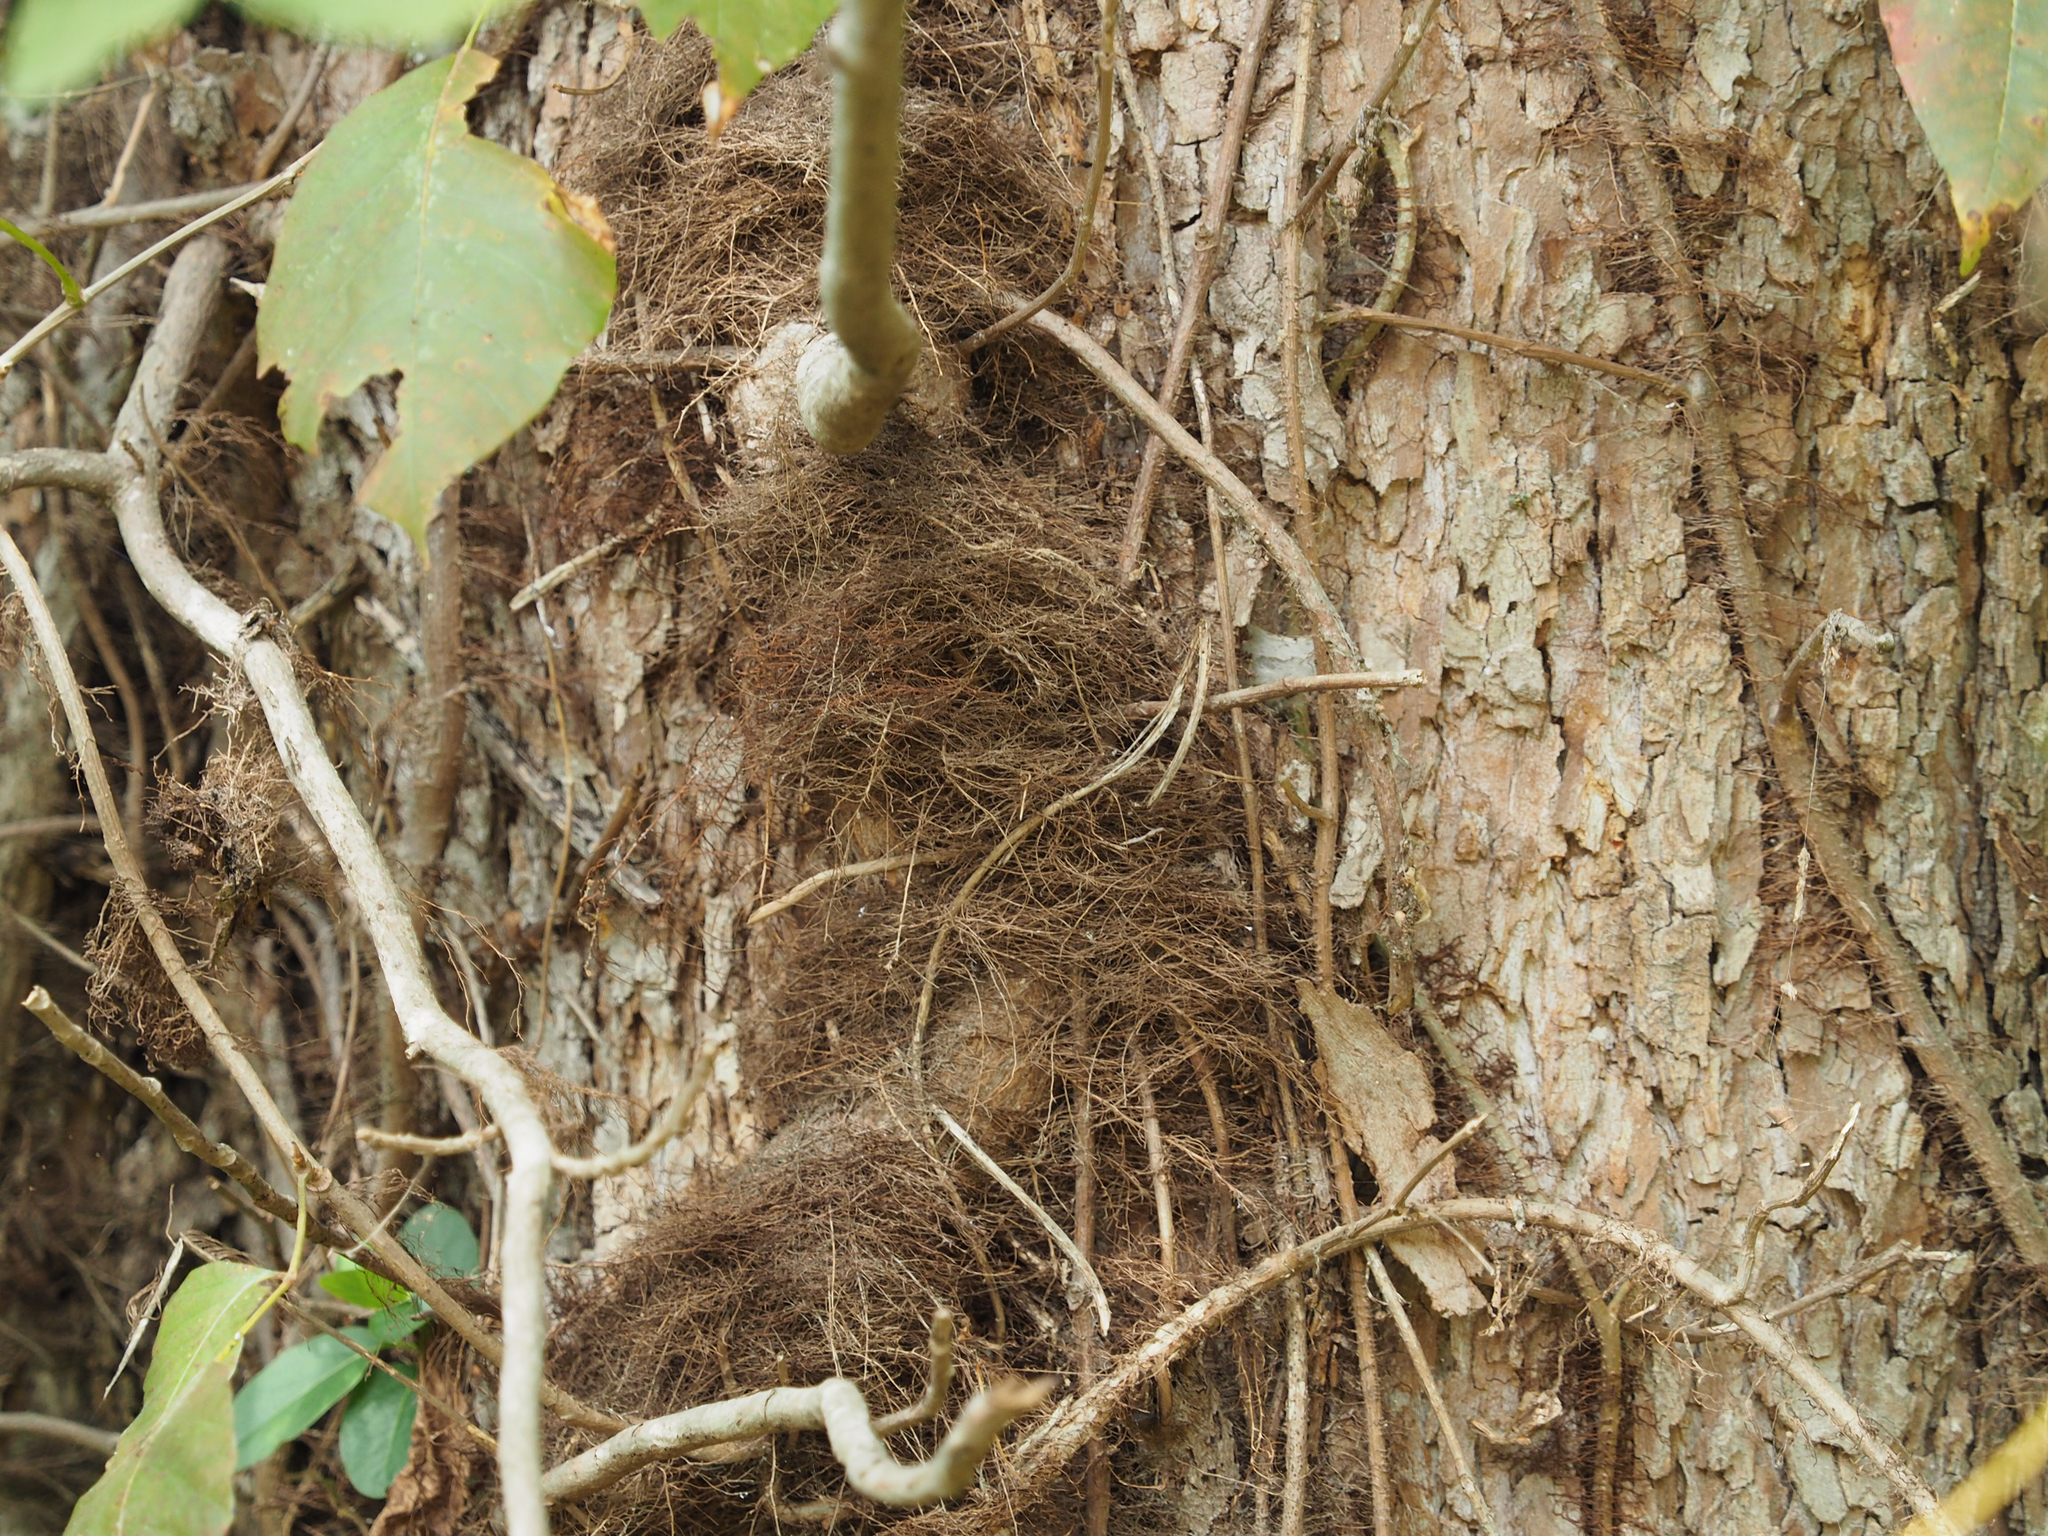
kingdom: Plantae
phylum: Tracheophyta
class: Magnoliopsida
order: Sapindales
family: Anacardiaceae
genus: Toxicodendron
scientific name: Toxicodendron radicans
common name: Poison ivy
